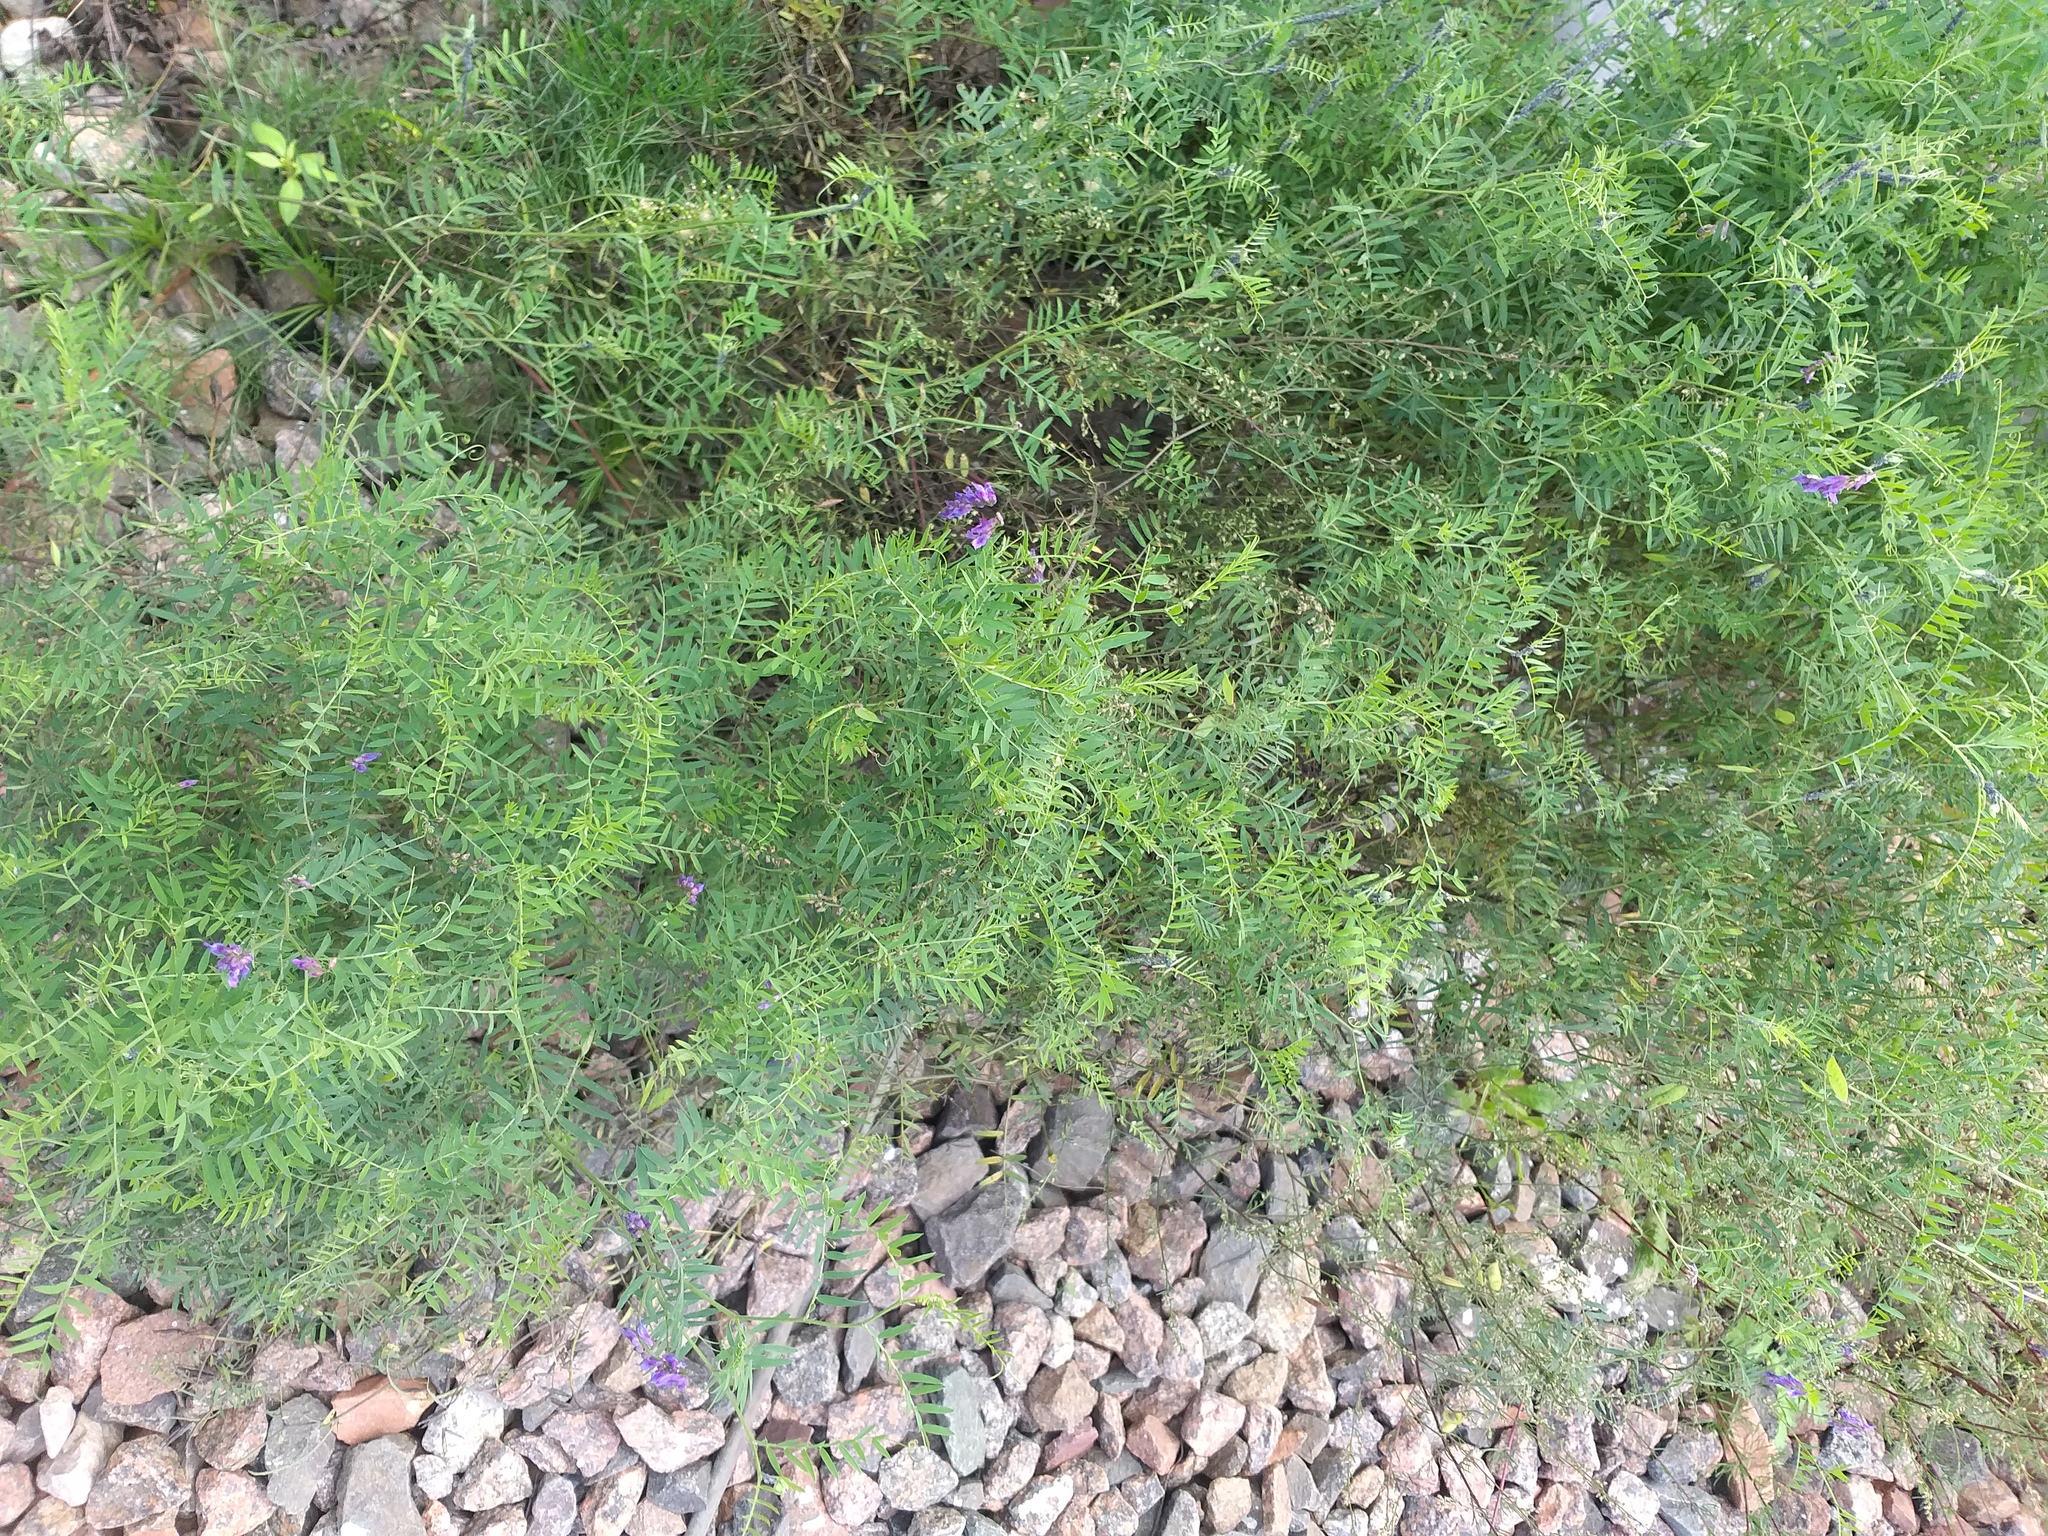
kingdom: Plantae
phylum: Tracheophyta
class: Magnoliopsida
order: Fabales
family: Fabaceae
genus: Vicia
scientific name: Vicia cracca
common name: Bird vetch
